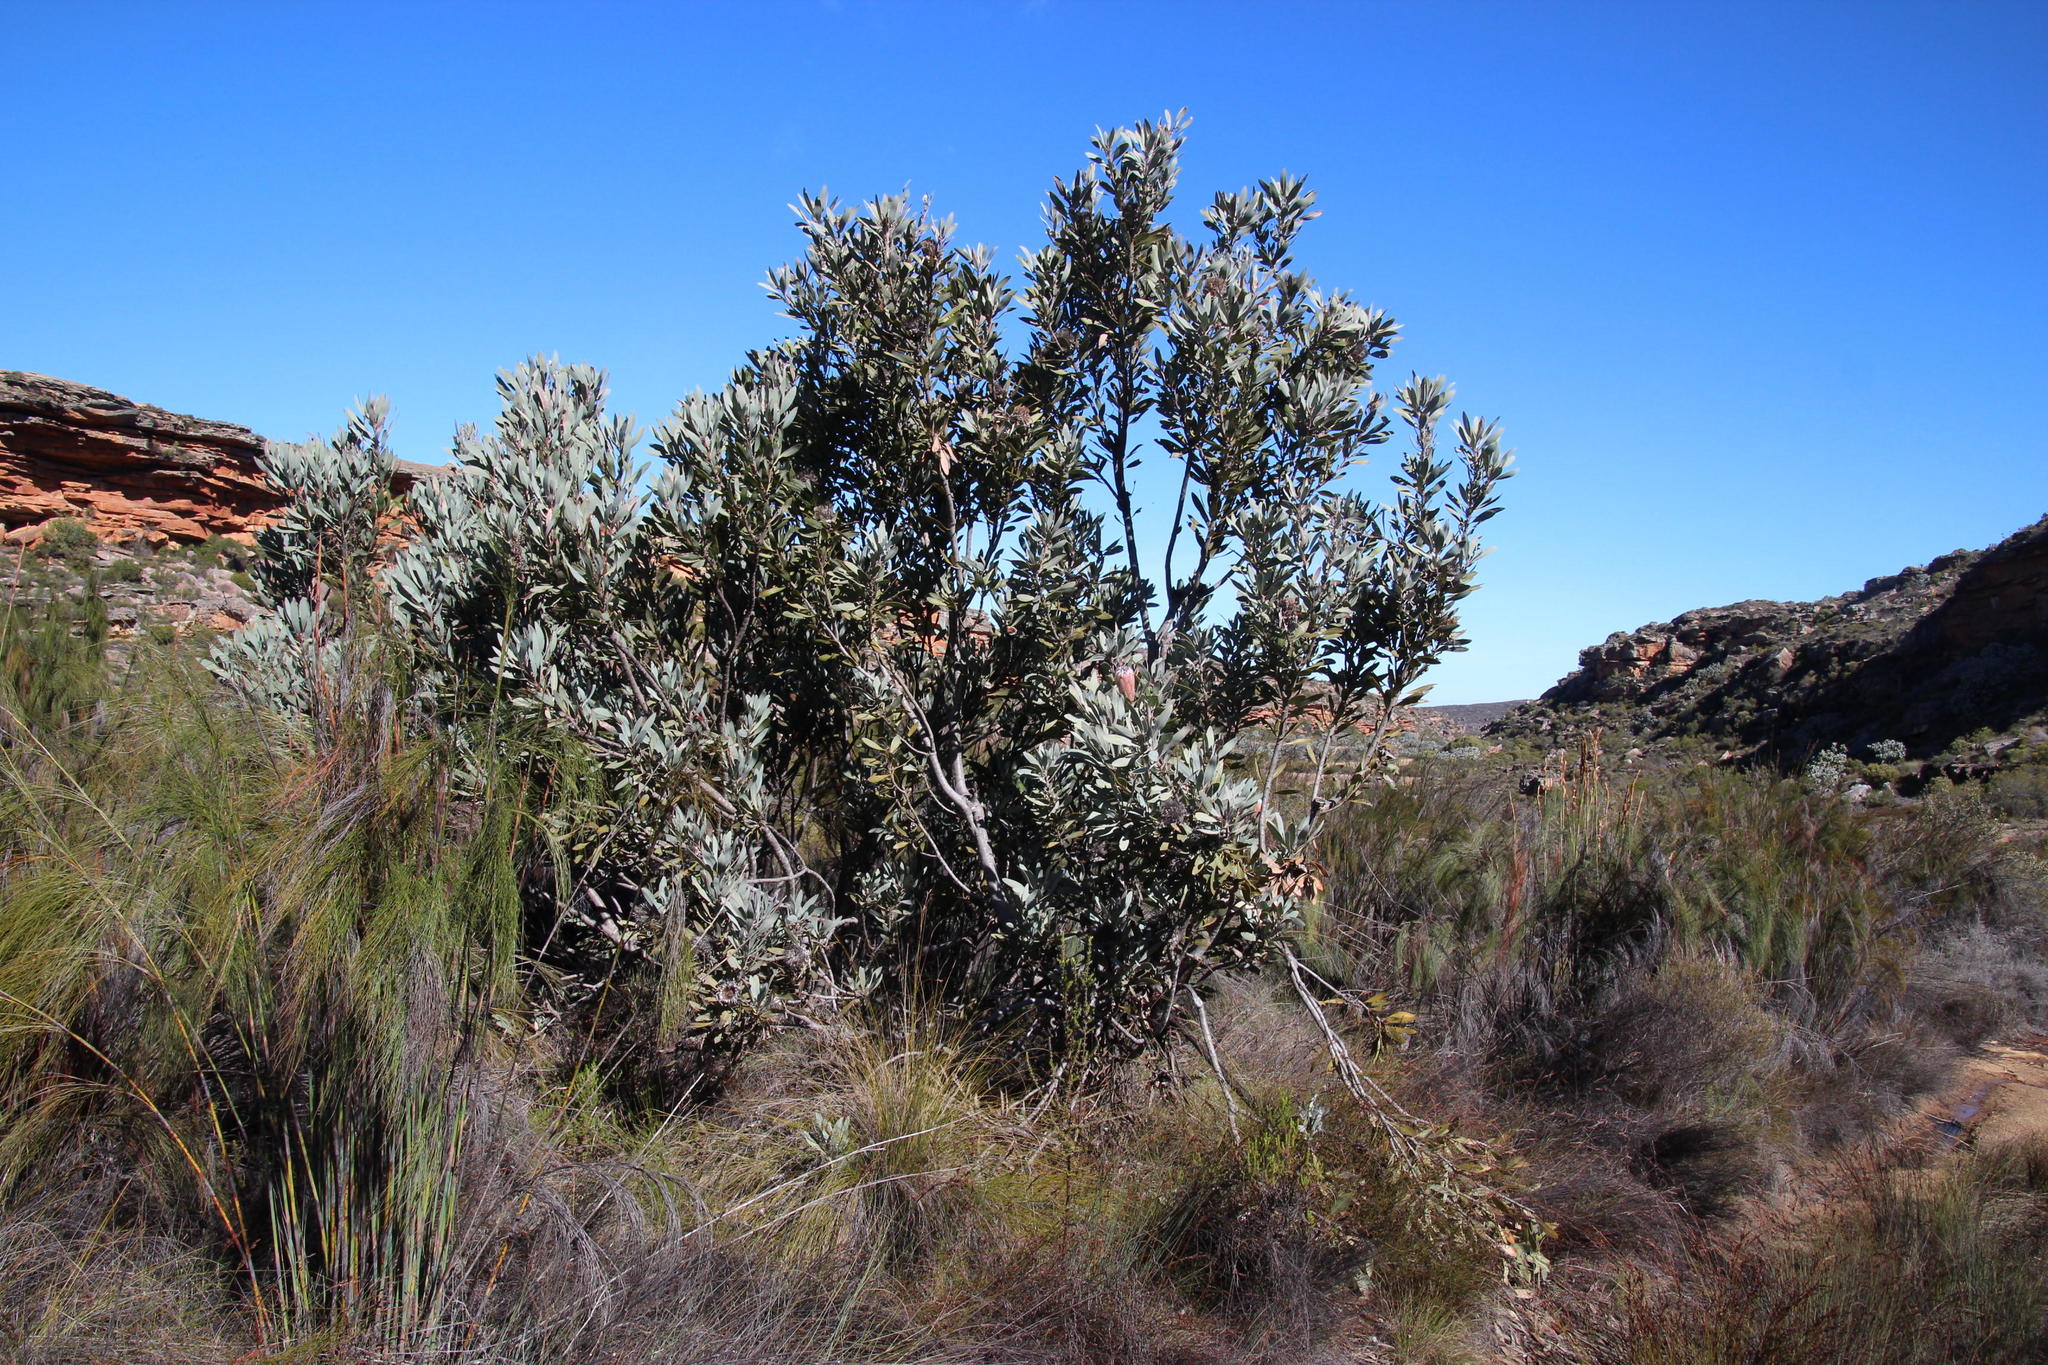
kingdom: Plantae
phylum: Tracheophyta
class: Magnoliopsida
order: Proteales
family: Proteaceae
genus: Protea
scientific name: Protea laurifolia
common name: Grey-leaf sugarbsh
